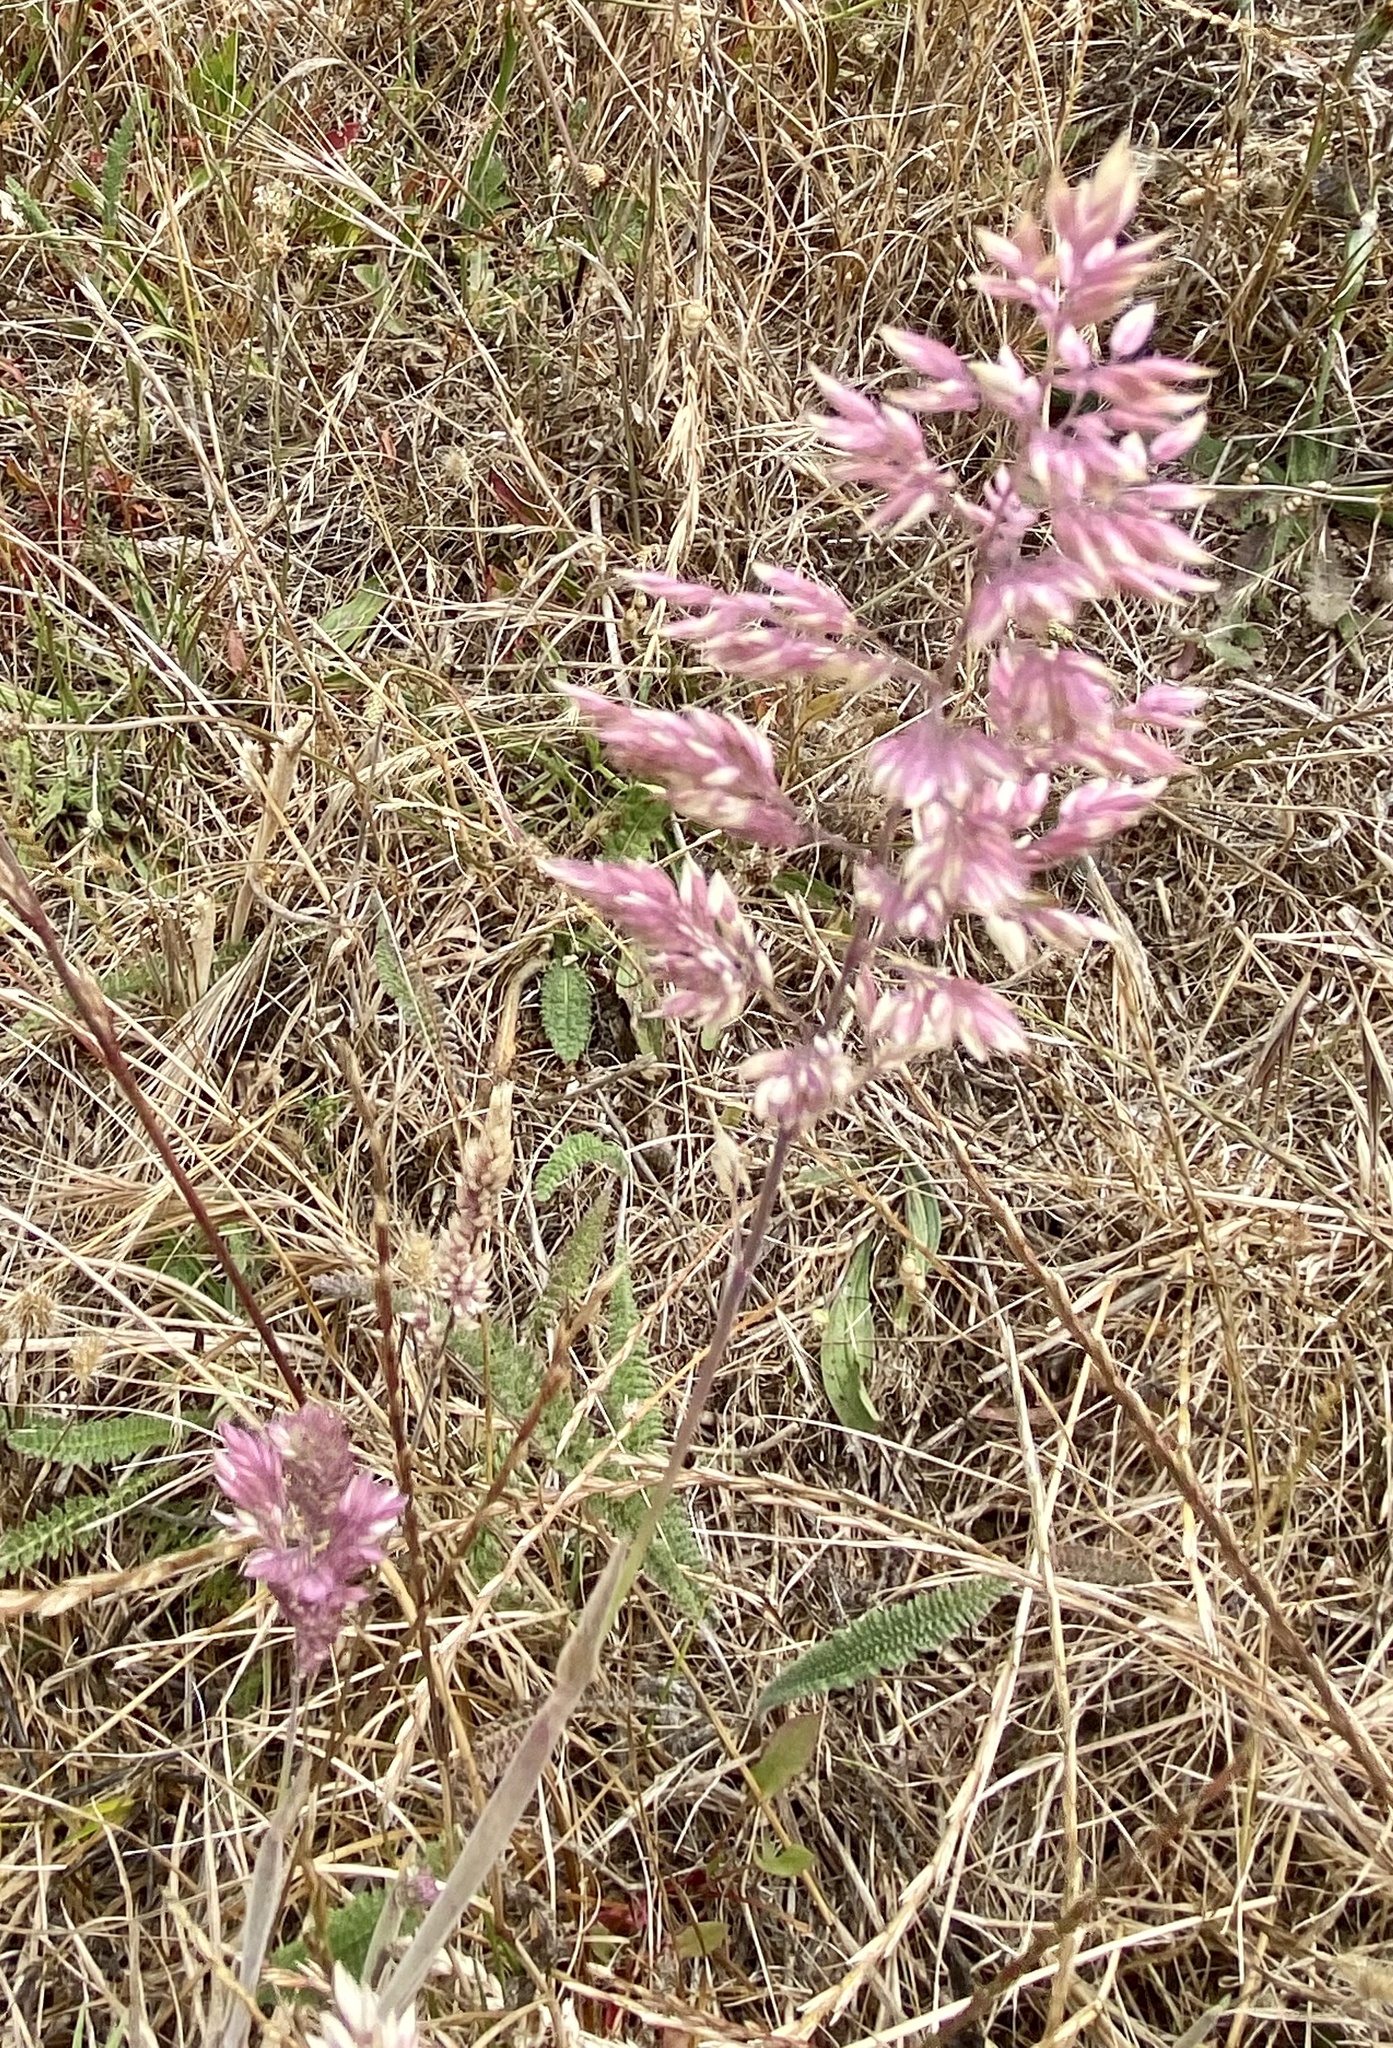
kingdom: Plantae
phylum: Tracheophyta
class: Liliopsida
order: Poales
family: Poaceae
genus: Holcus
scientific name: Holcus lanatus
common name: Yorkshire-fog
